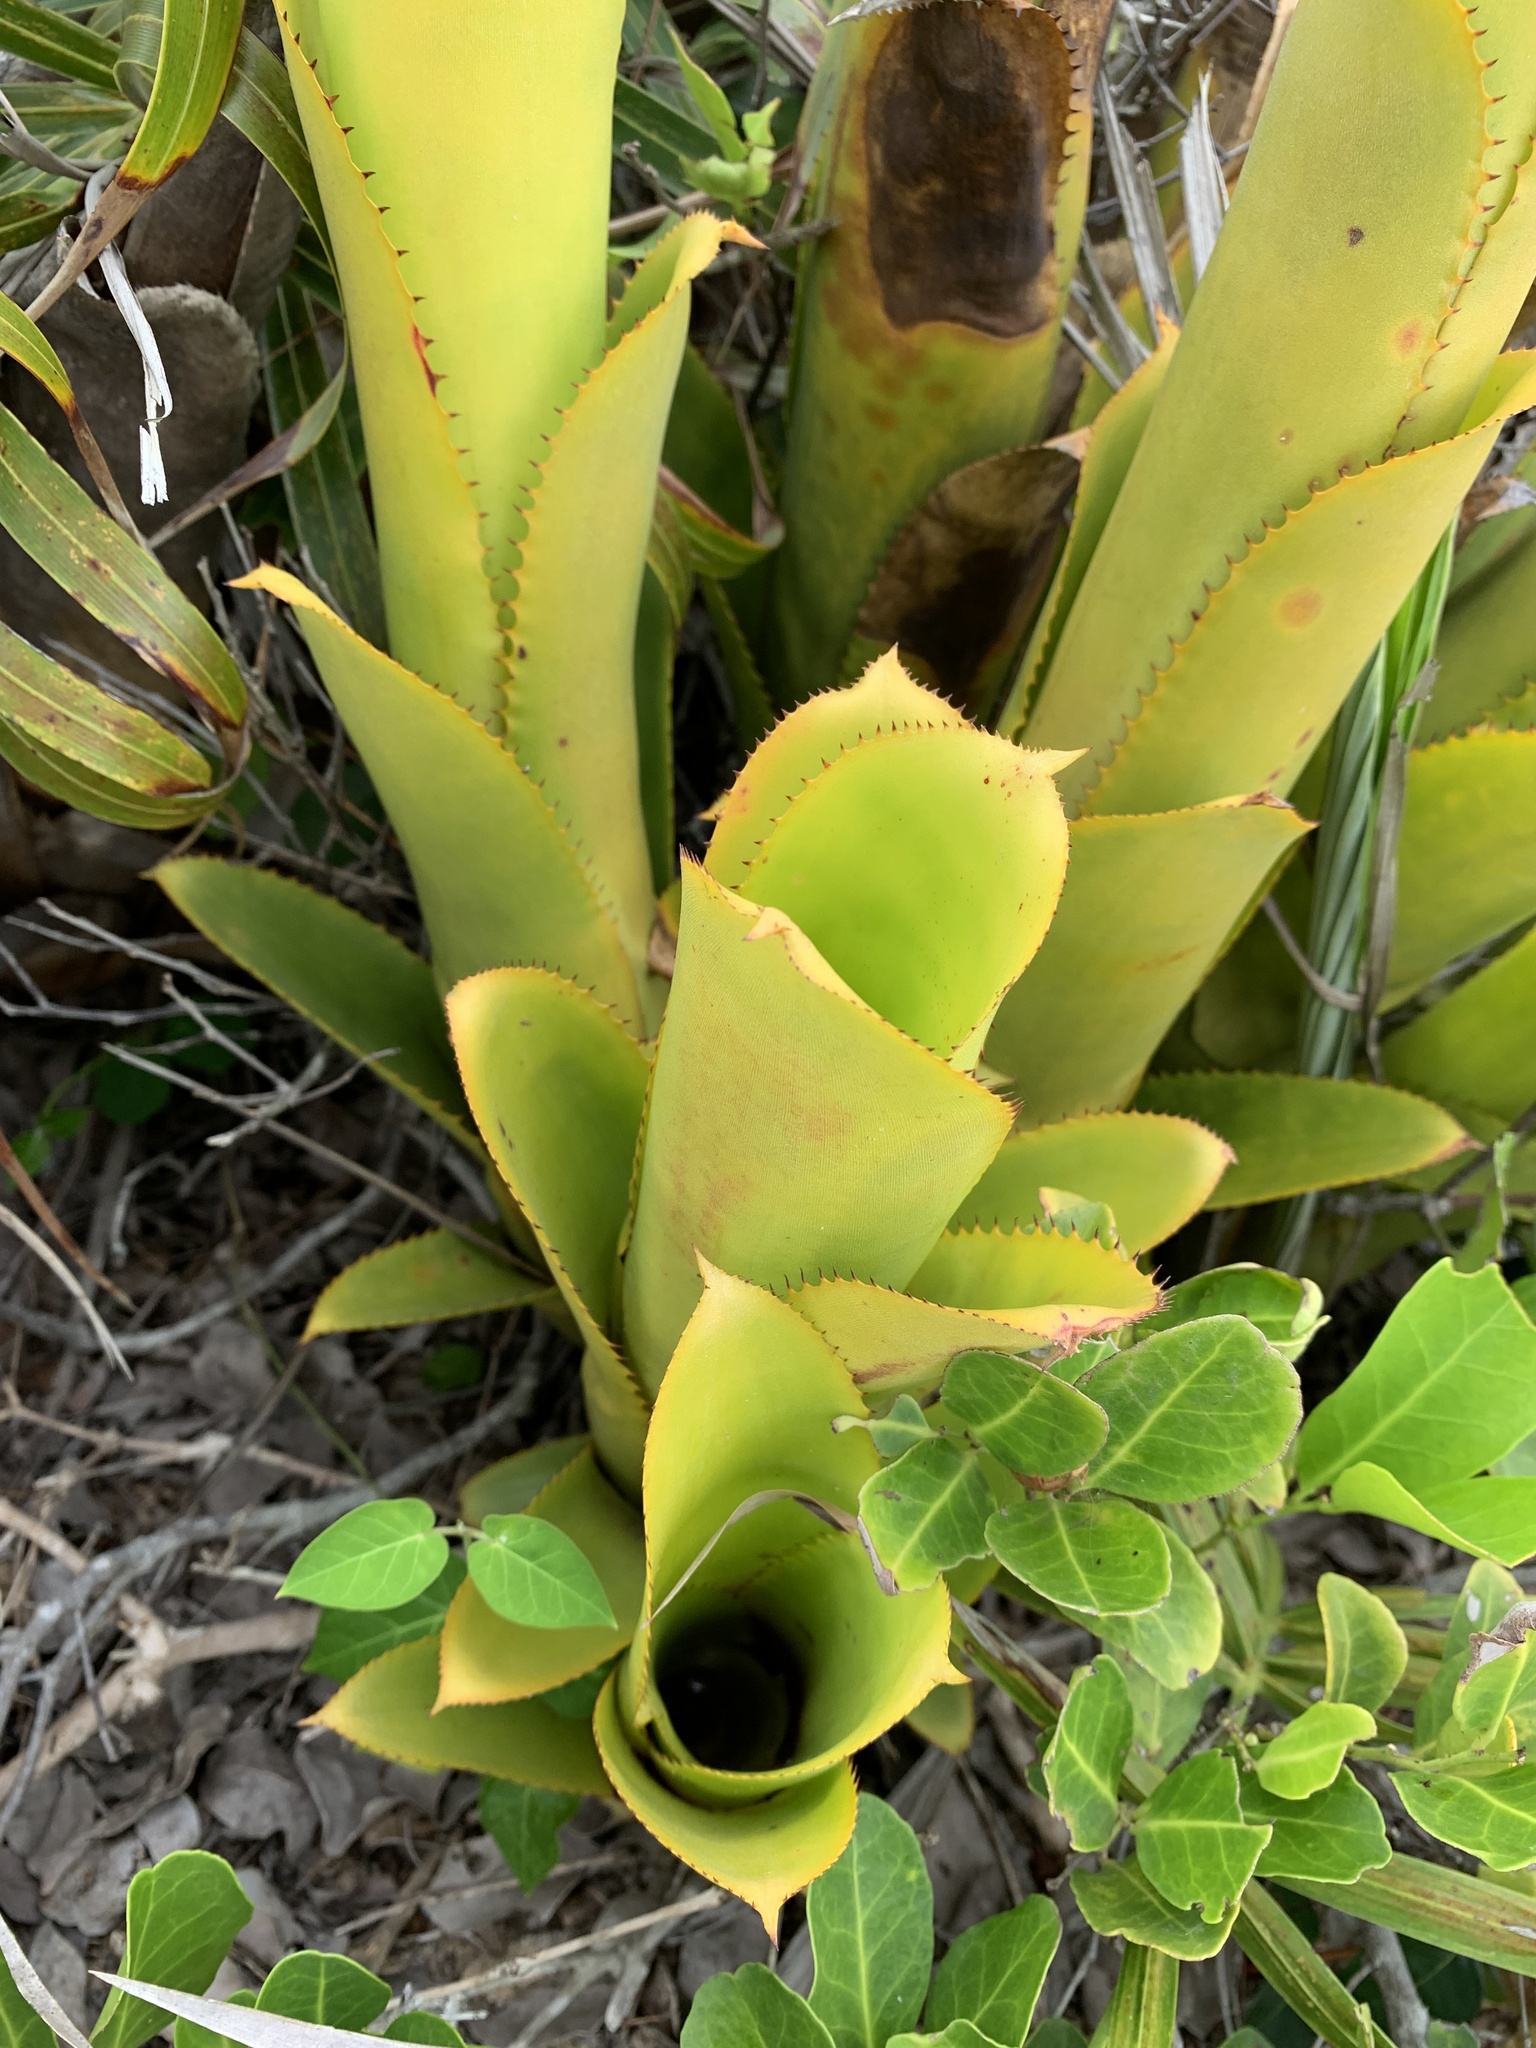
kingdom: Plantae
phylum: Tracheophyta
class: Liliopsida
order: Poales
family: Bromeliaceae
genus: Aechmea
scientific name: Aechmea nudicaulis
